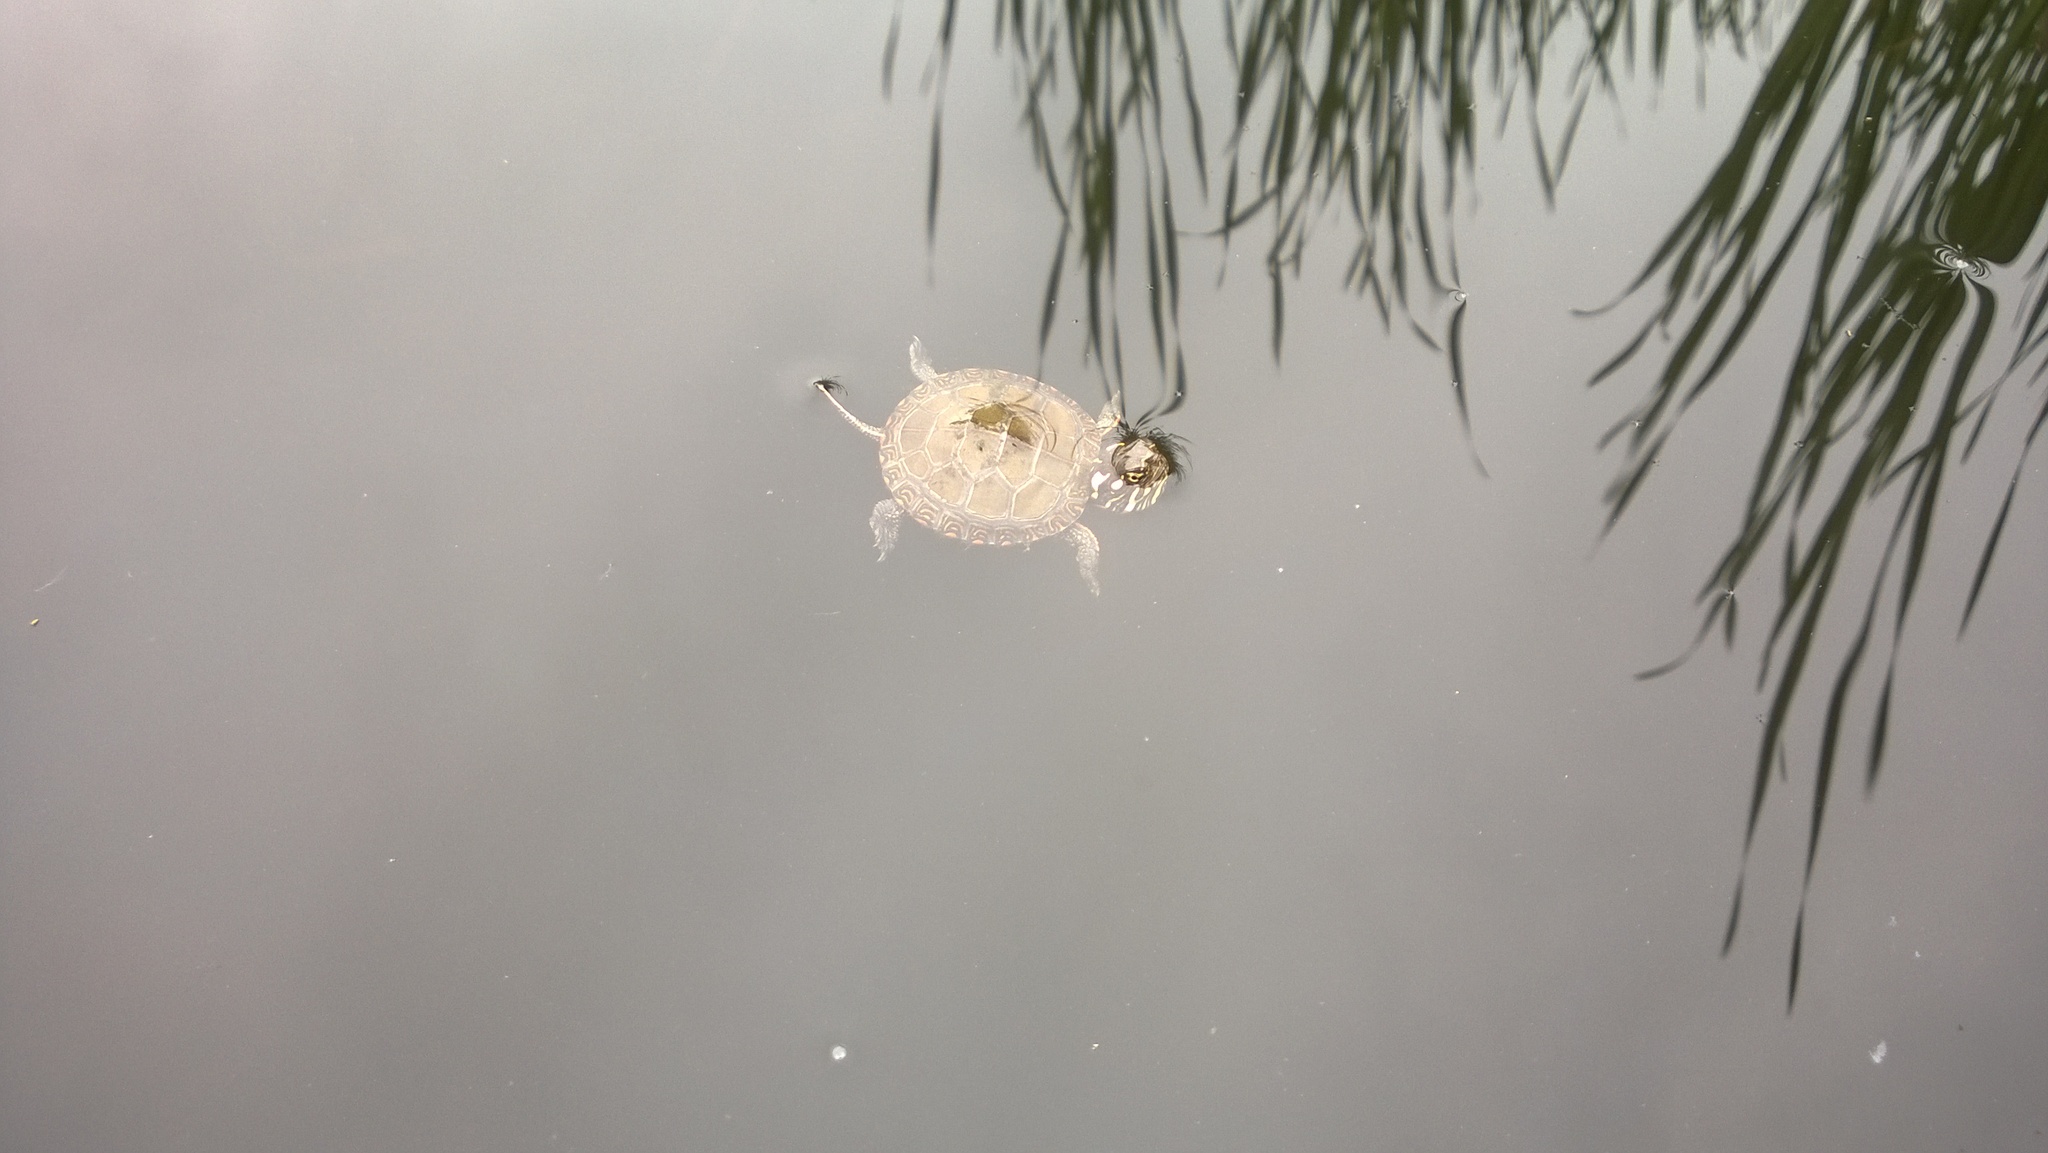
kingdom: Animalia
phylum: Chordata
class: Testudines
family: Emydidae
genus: Chrysemys
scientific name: Chrysemys picta
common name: Painted turtle
